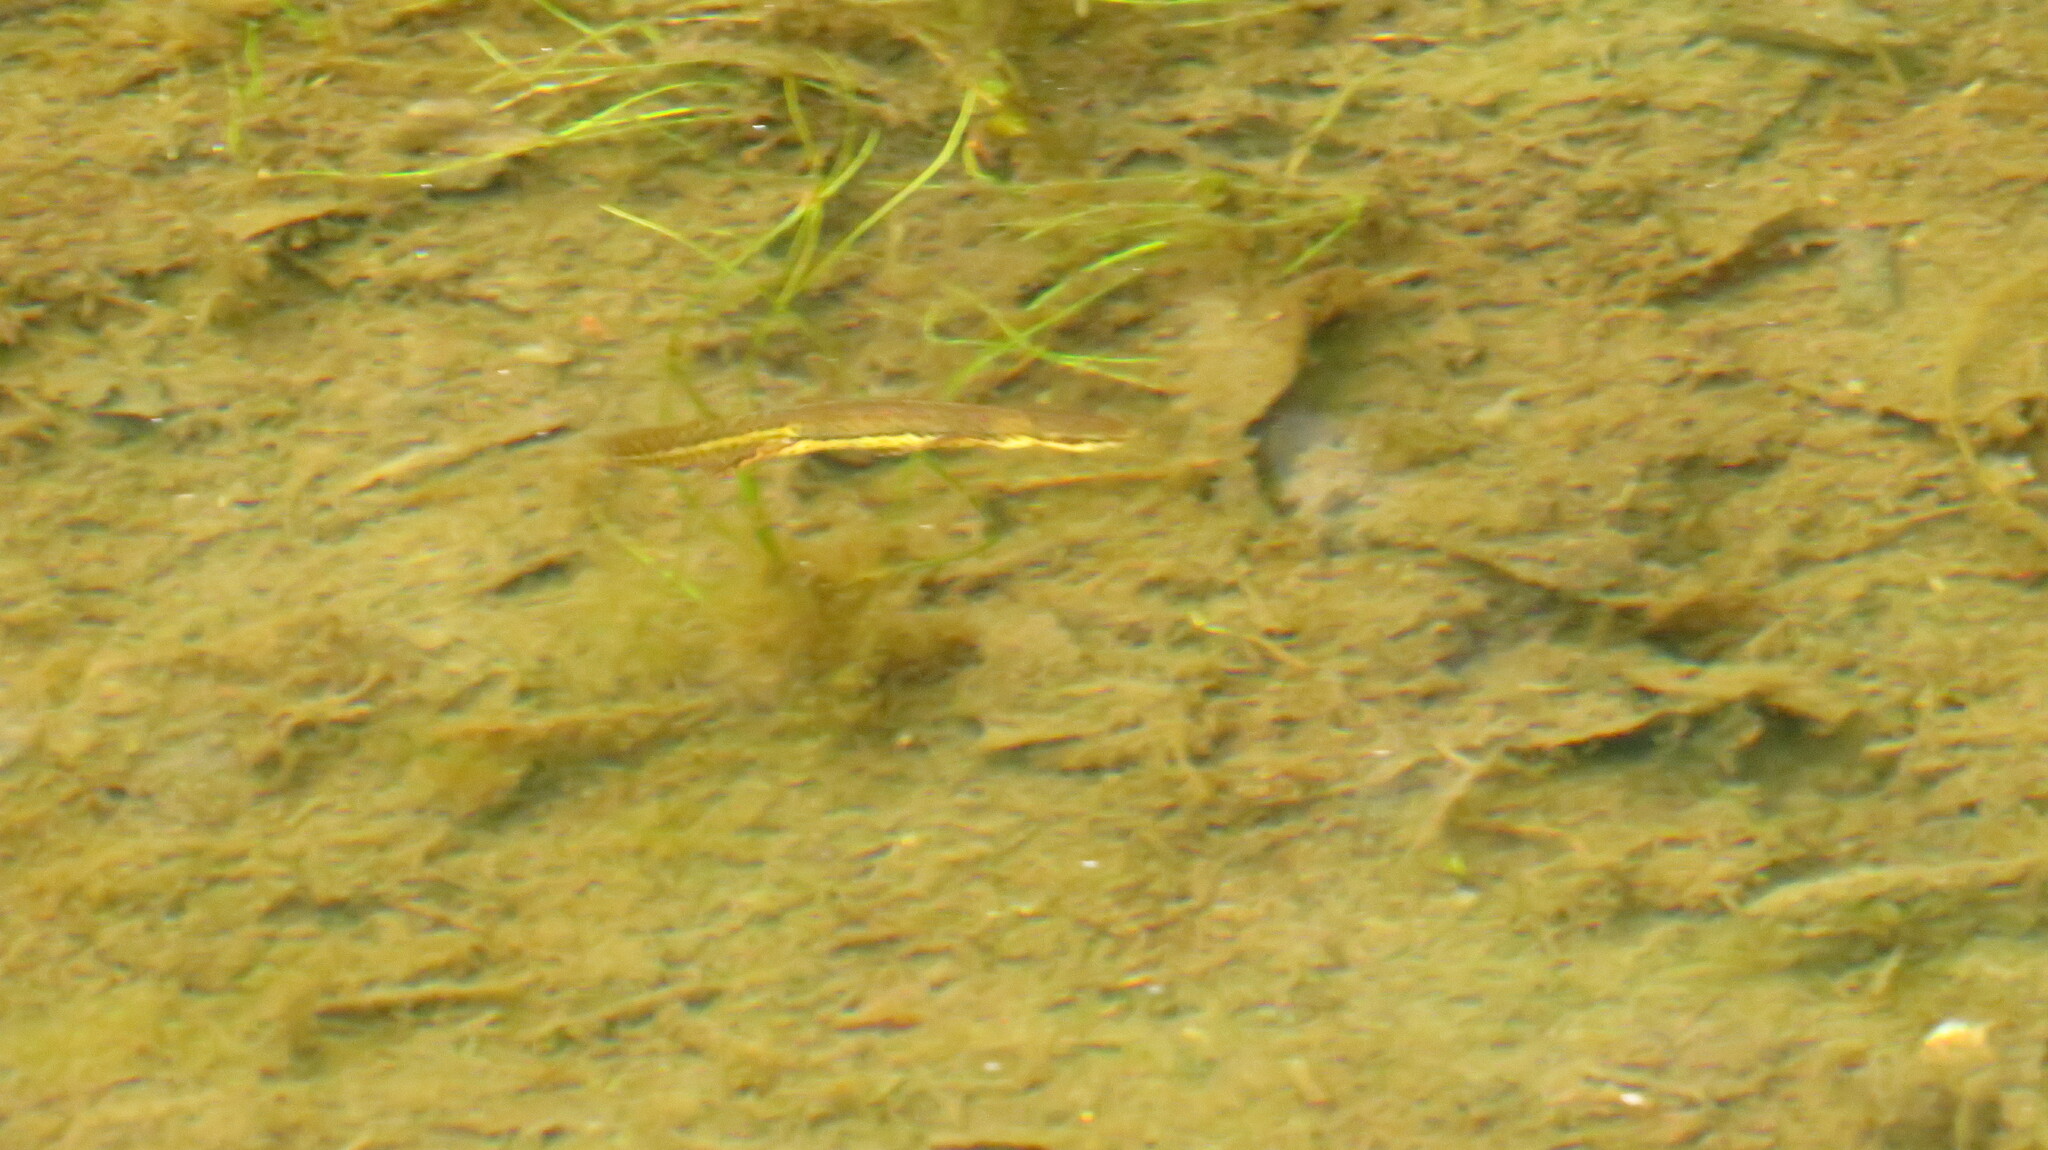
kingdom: Animalia
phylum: Chordata
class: Amphibia
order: Caudata
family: Salamandridae
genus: Notophthalmus
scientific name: Notophthalmus viridescens
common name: Eastern newt
